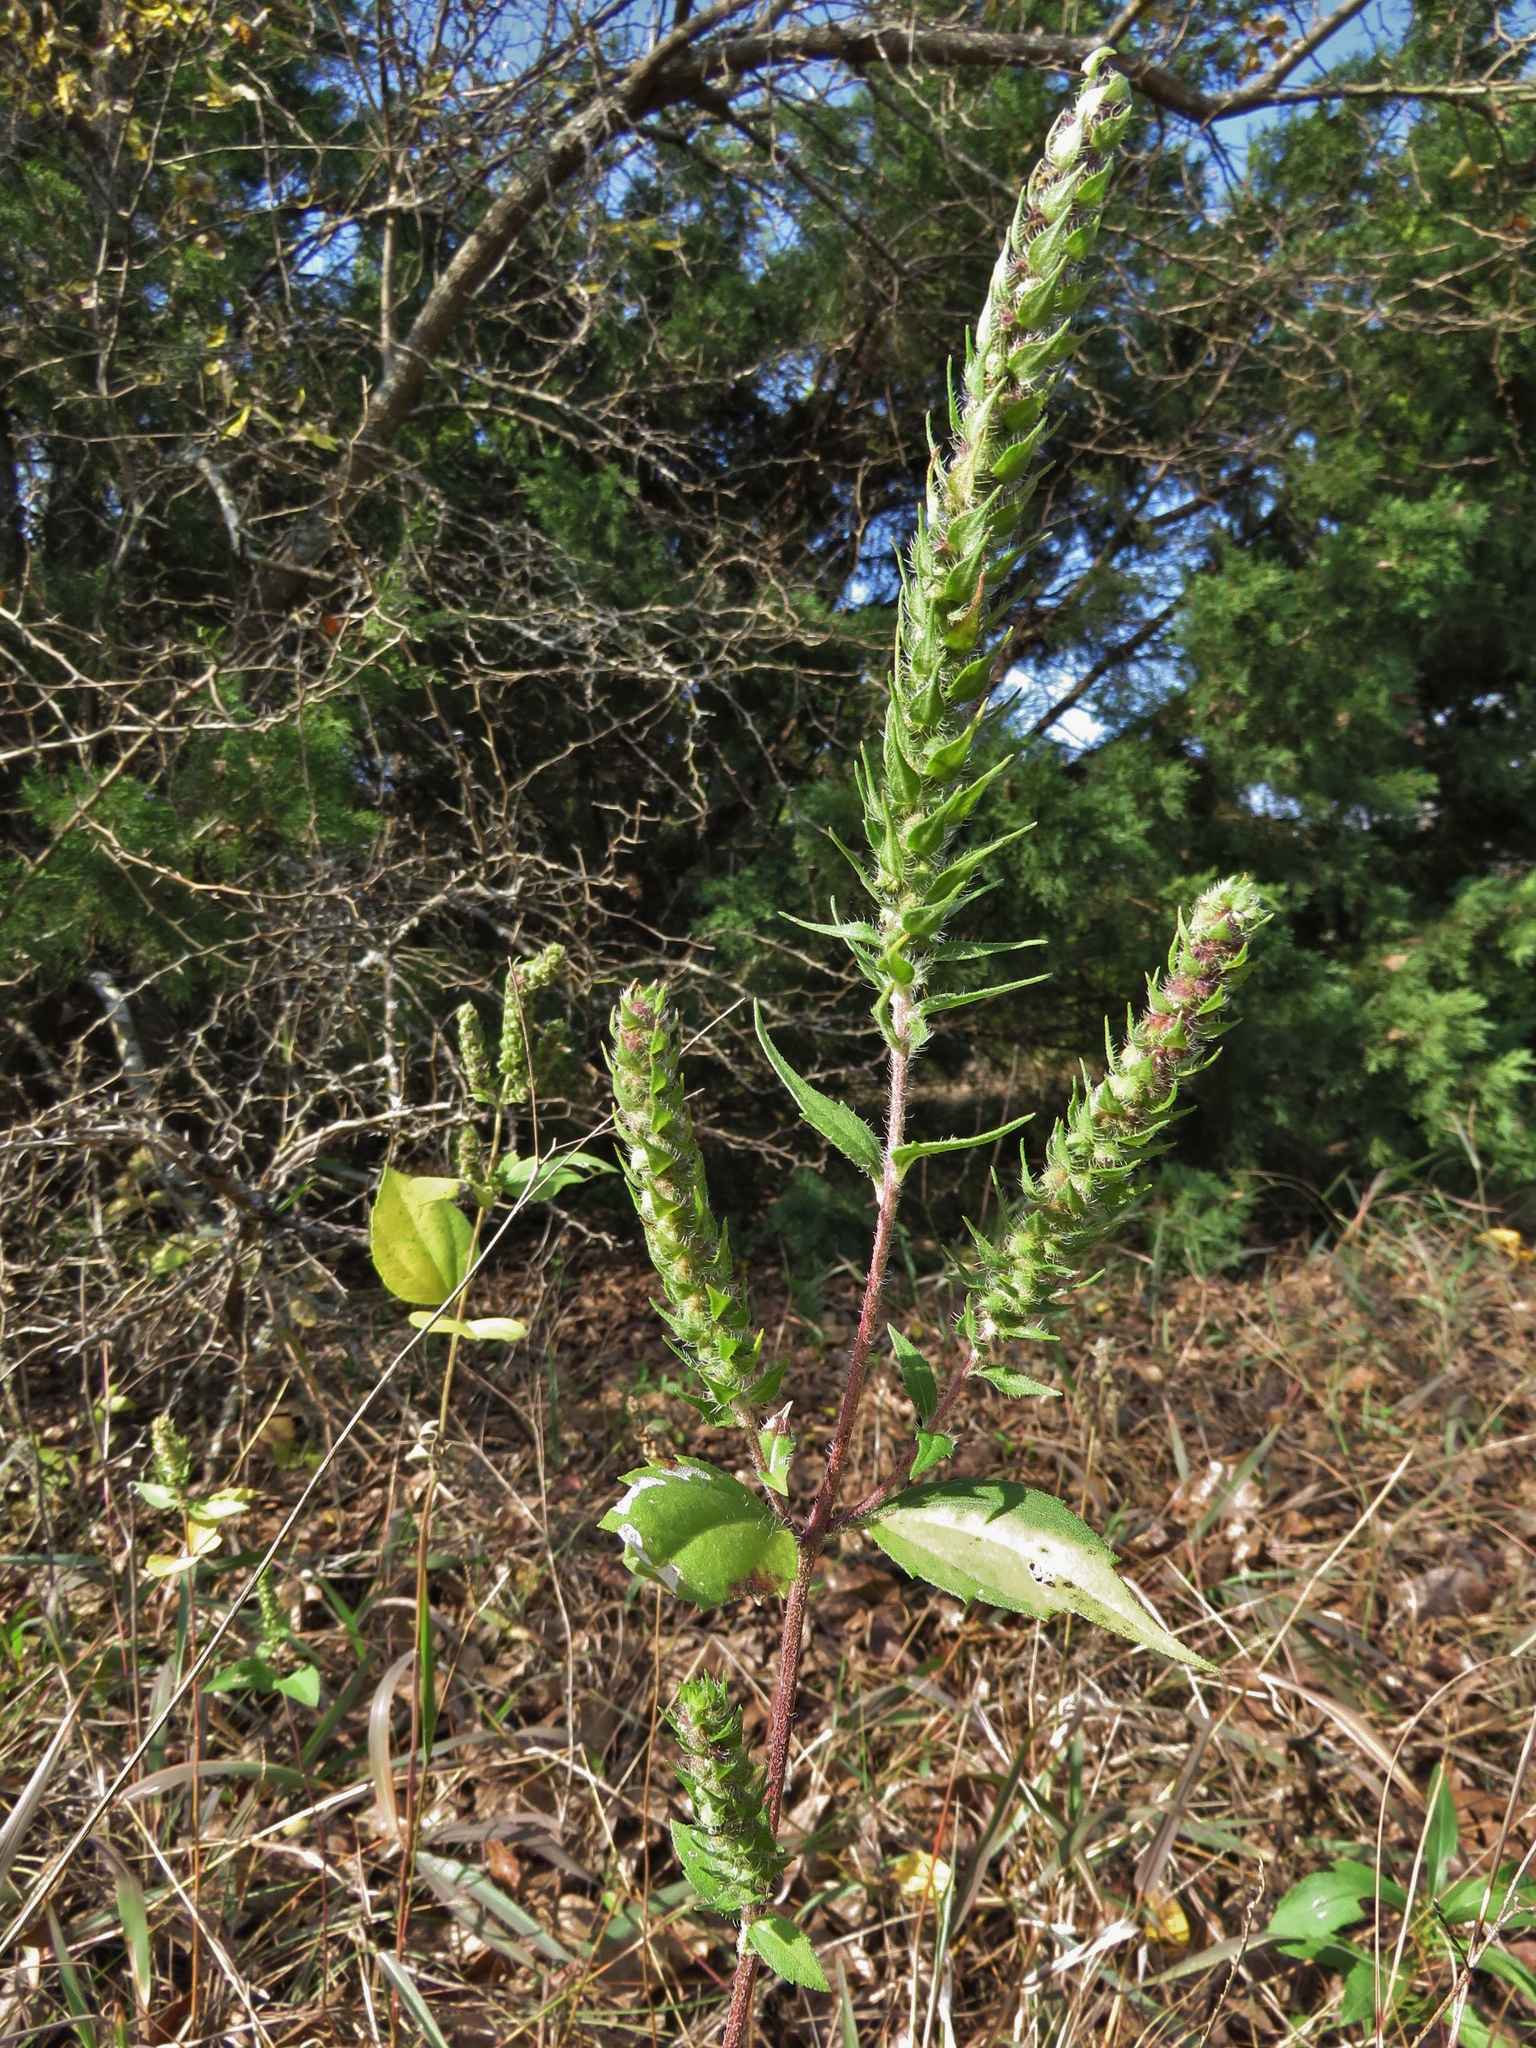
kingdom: Plantae
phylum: Tracheophyta
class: Magnoliopsida
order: Asterales
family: Asteraceae
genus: Iva
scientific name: Iva annua
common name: Marsh-elder
